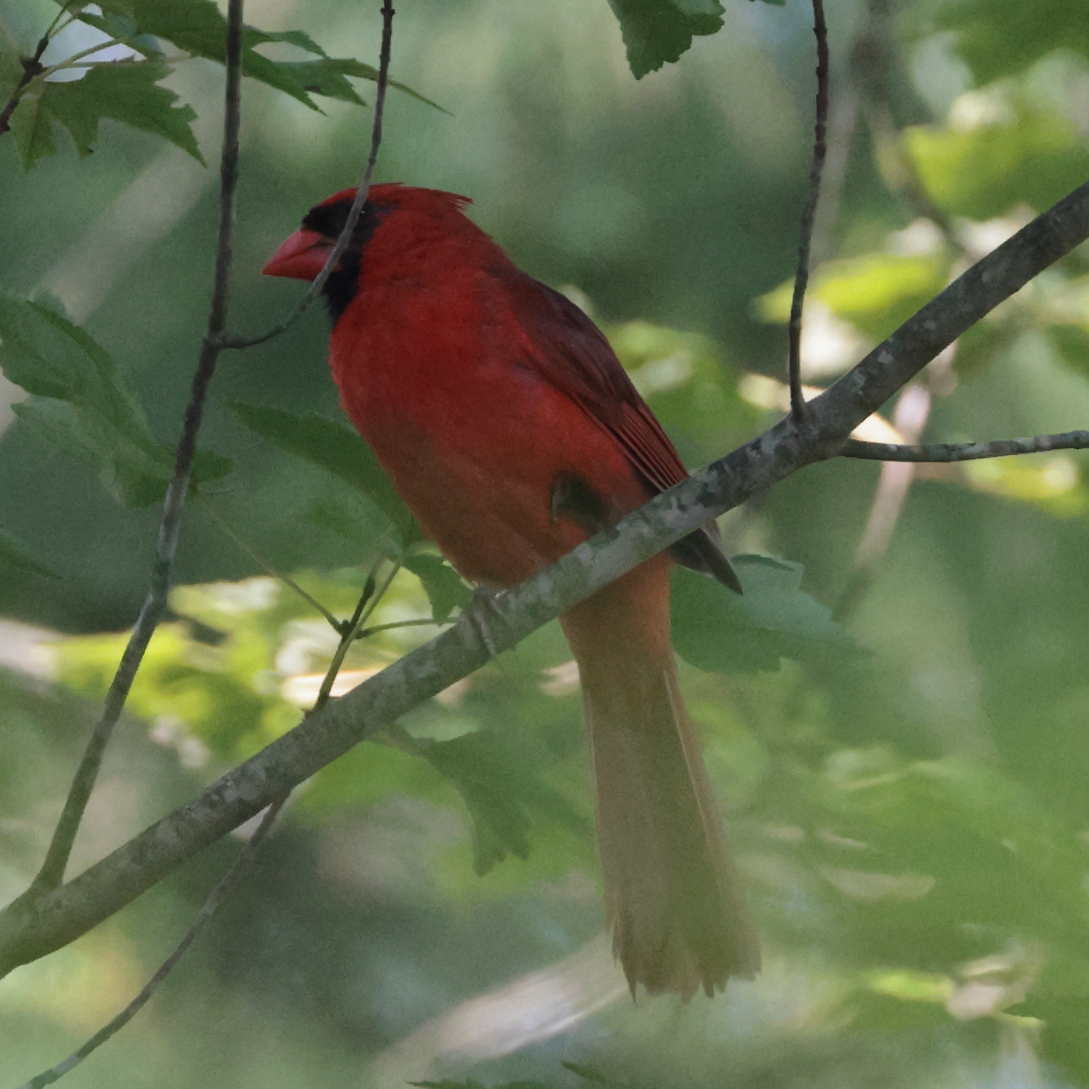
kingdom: Animalia
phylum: Chordata
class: Aves
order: Passeriformes
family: Cardinalidae
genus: Cardinalis
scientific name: Cardinalis cardinalis
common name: Northern cardinal
